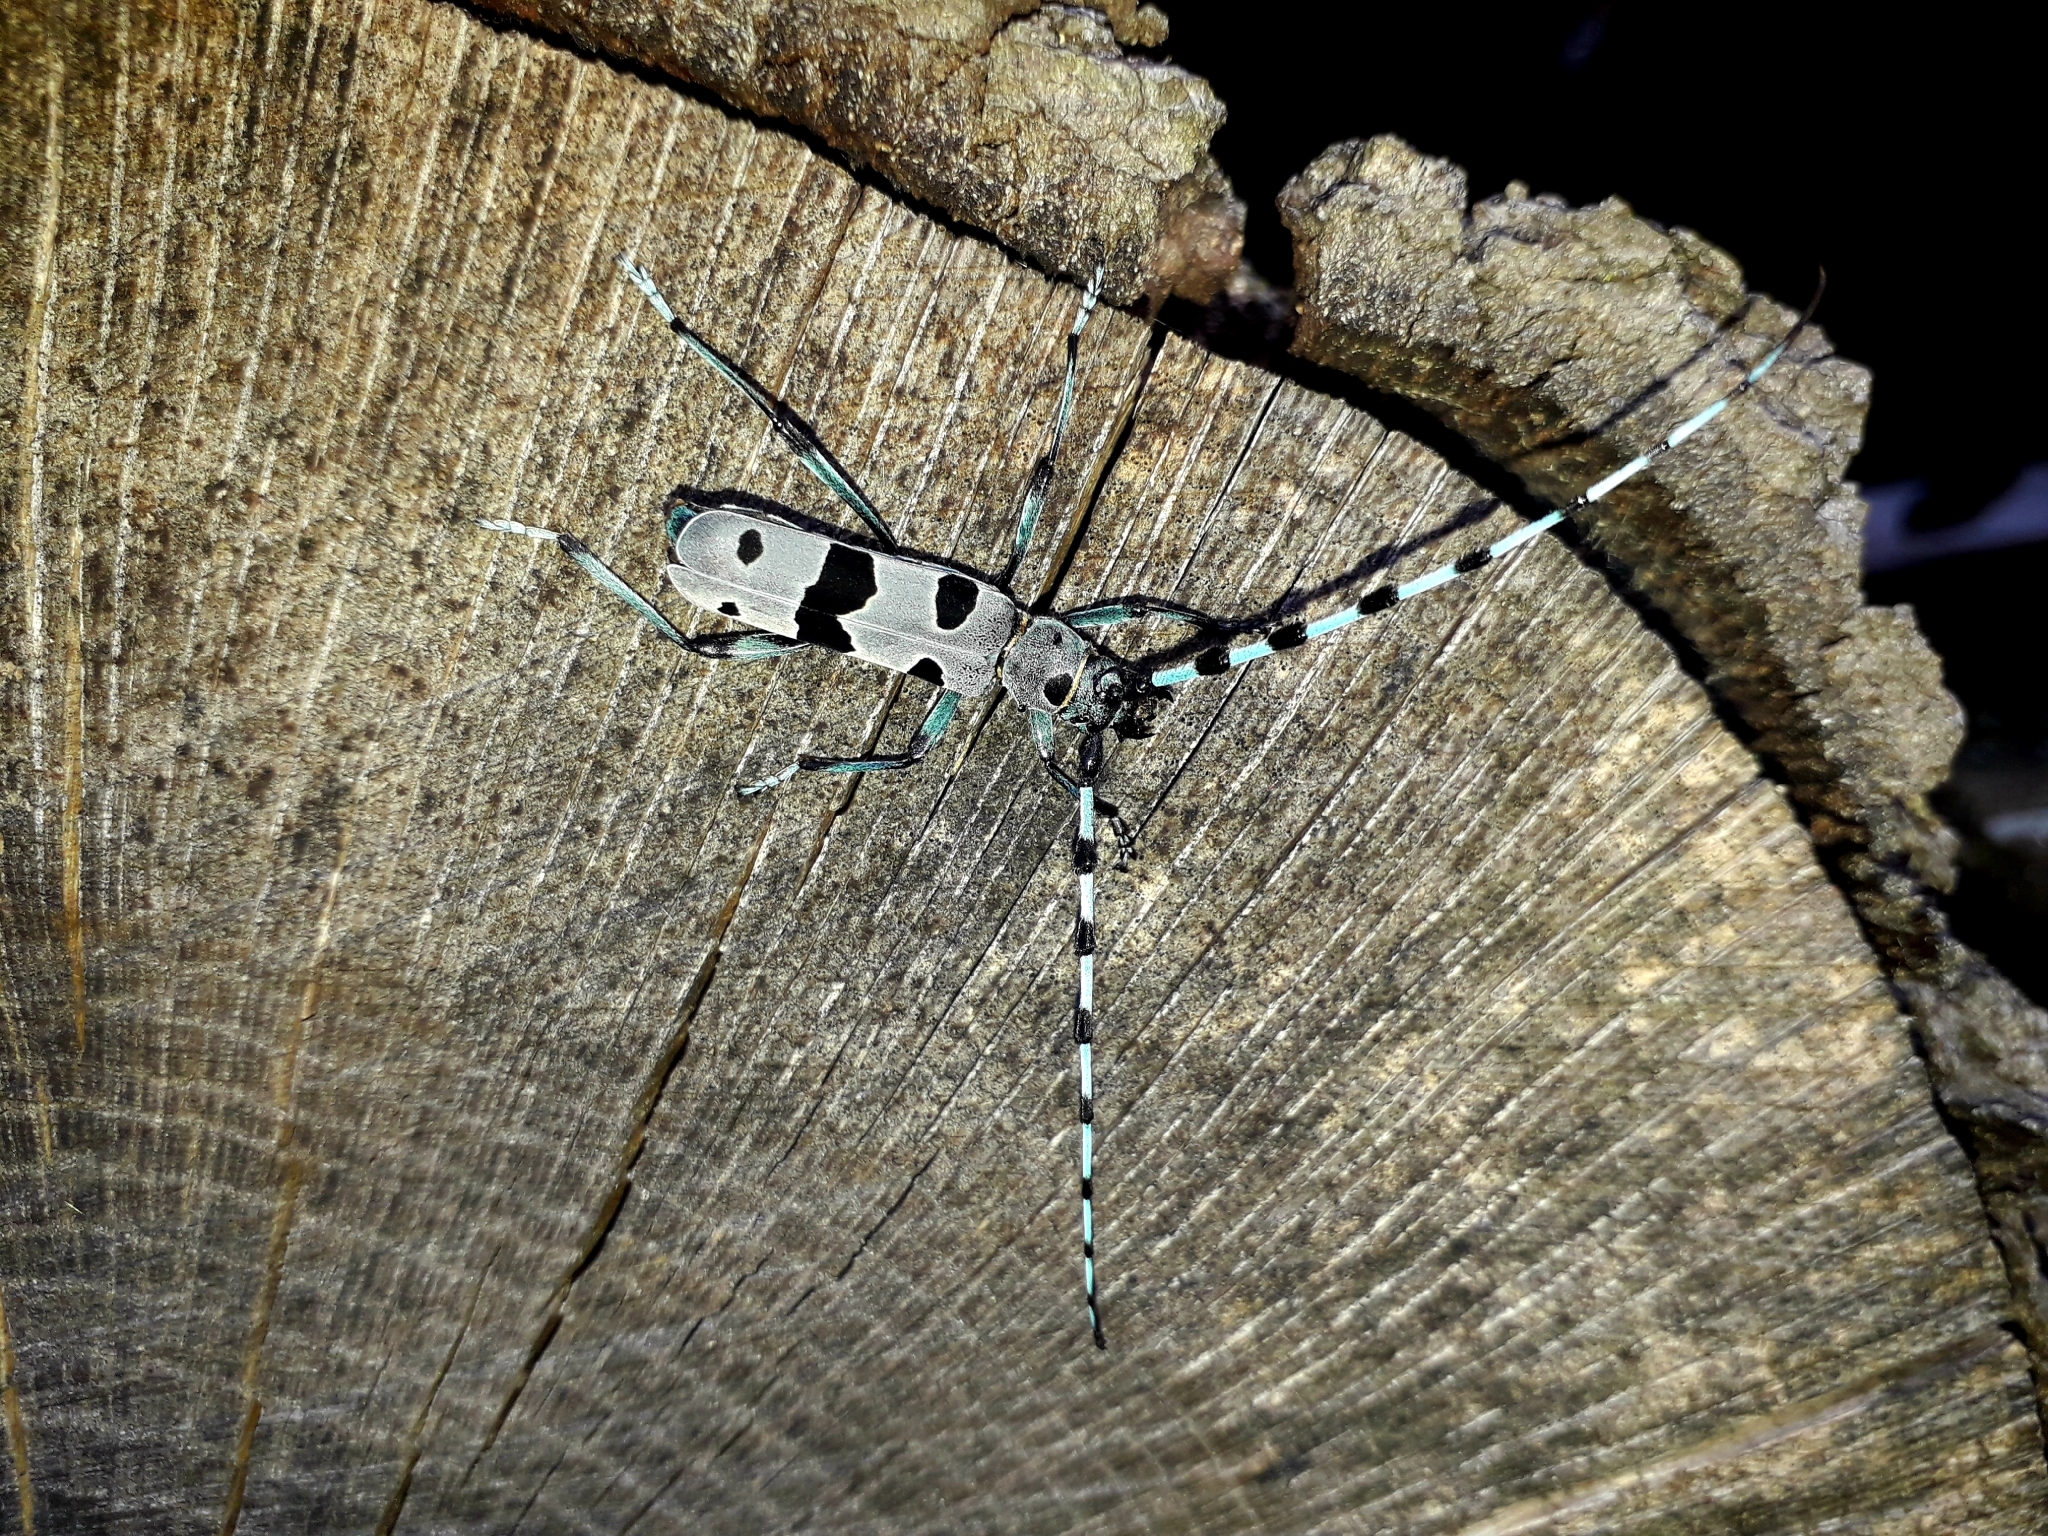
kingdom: Animalia
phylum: Arthropoda
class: Insecta
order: Coleoptera
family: Cerambycidae
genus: Rosalia
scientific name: Rosalia alpina
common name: Rosalia longicorn
